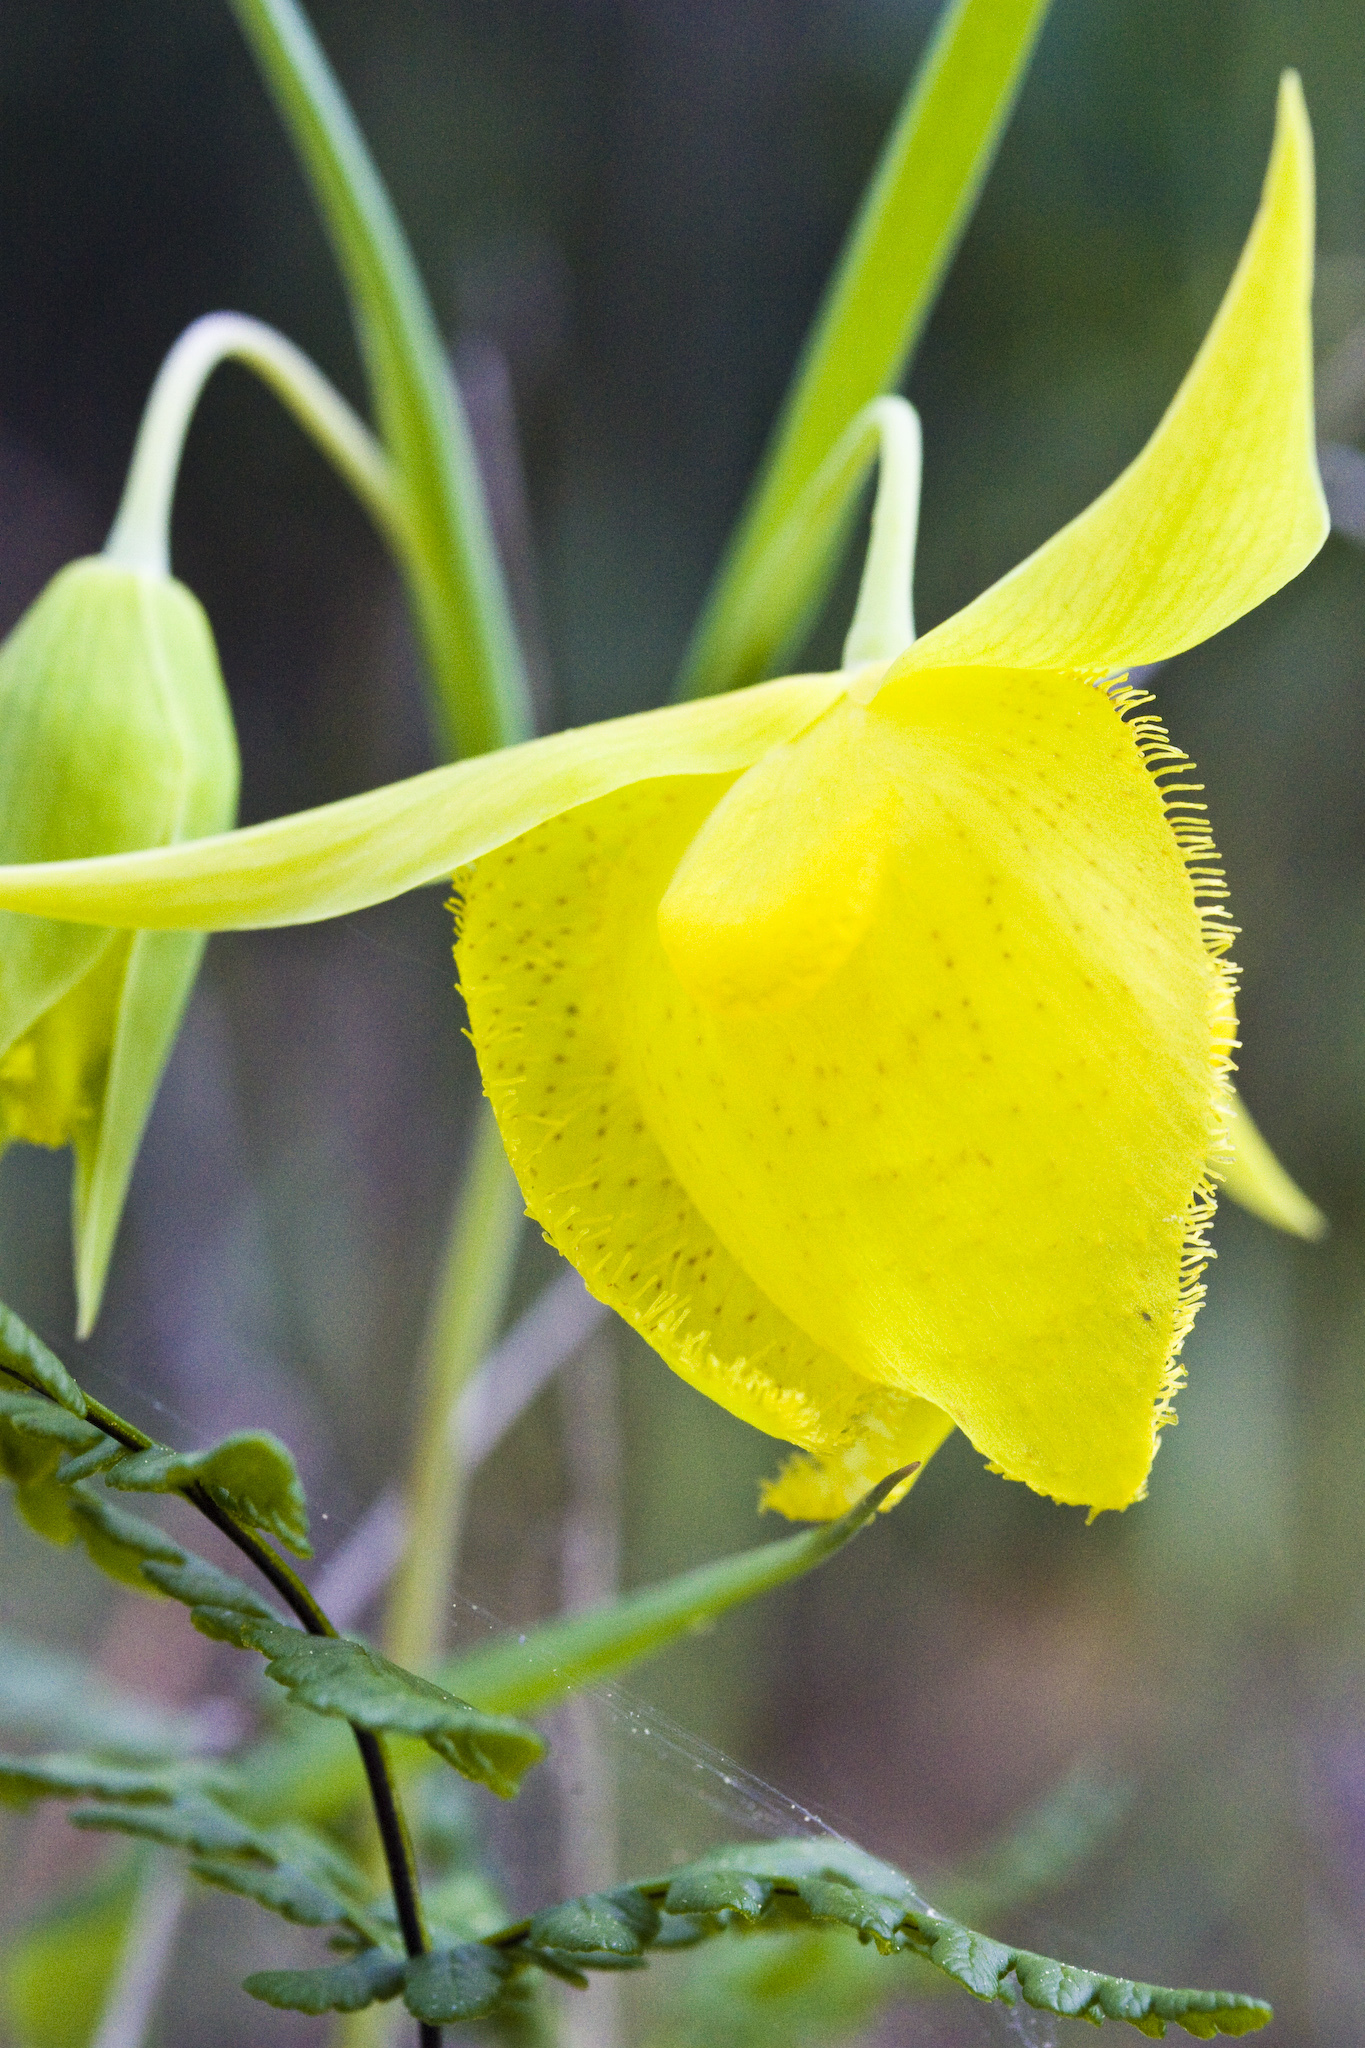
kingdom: Plantae
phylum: Tracheophyta
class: Liliopsida
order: Liliales
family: Liliaceae
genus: Calochortus
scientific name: Calochortus pulchellus
